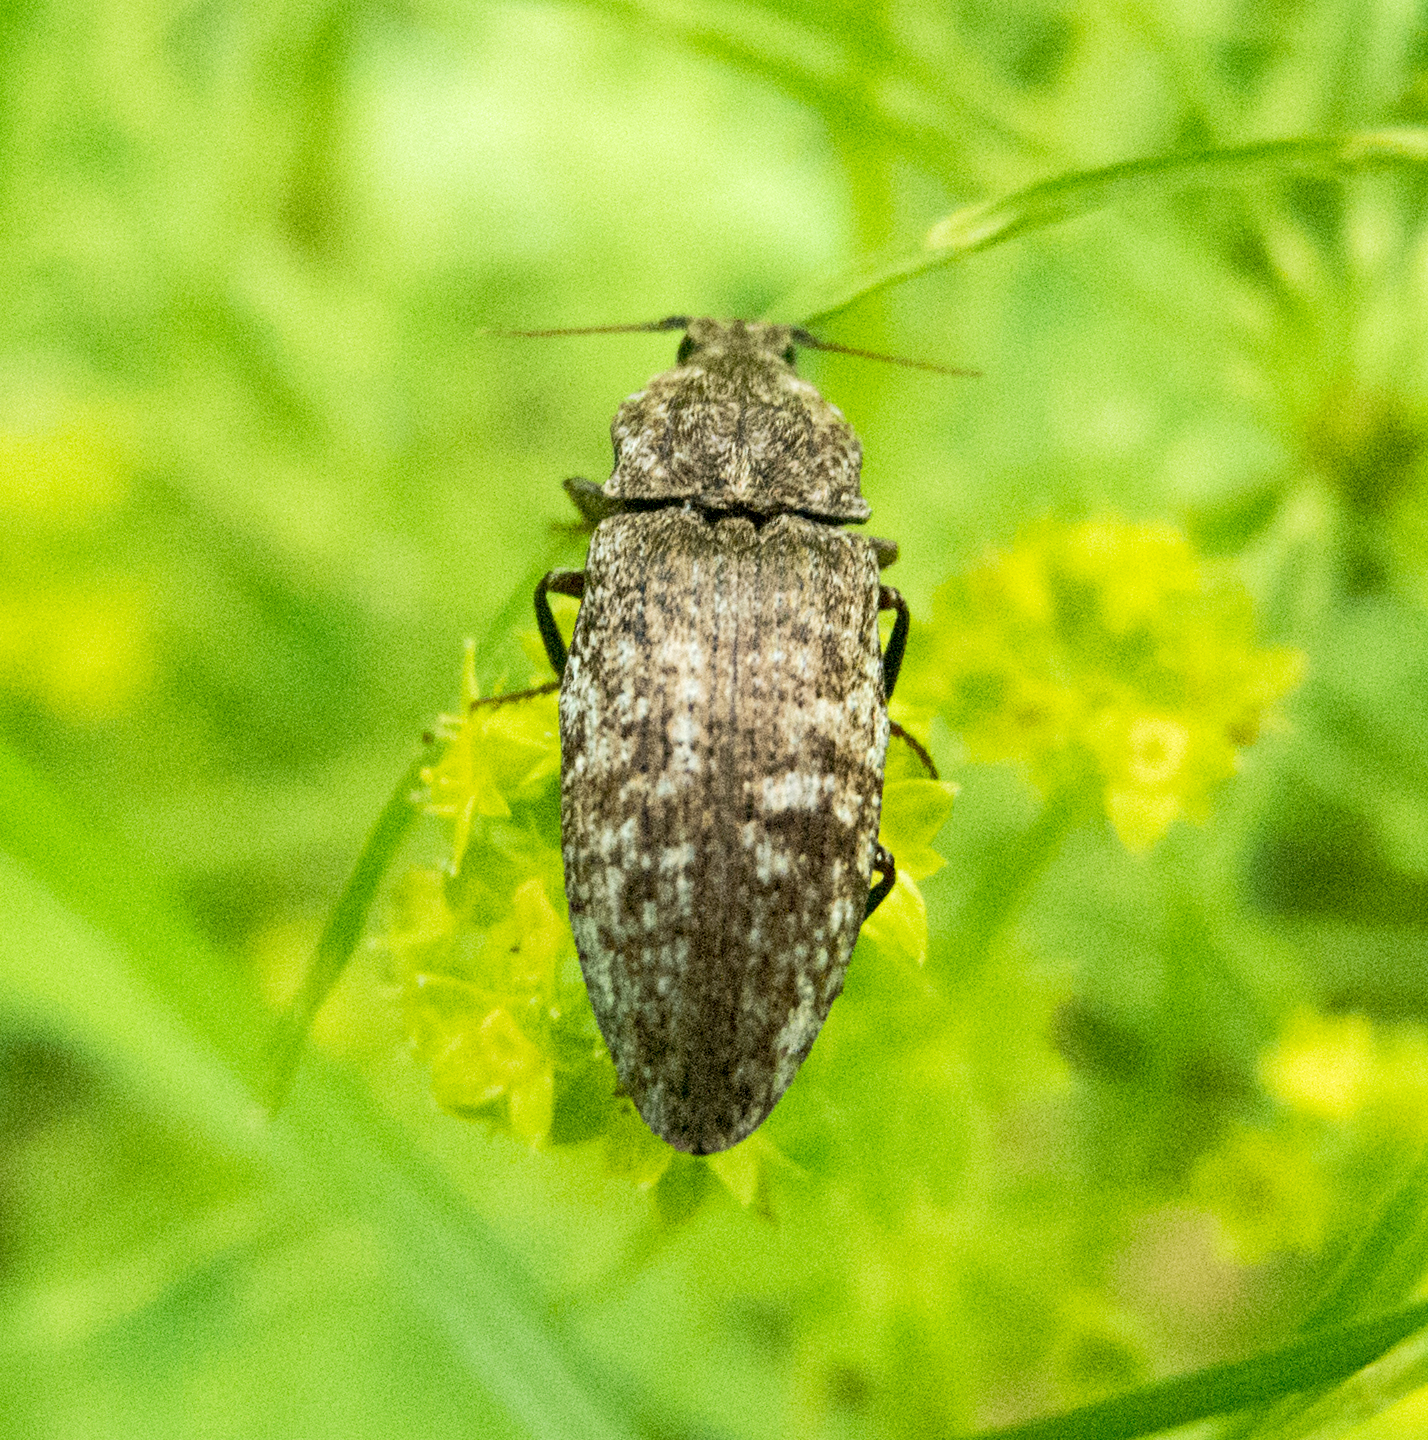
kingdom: Animalia
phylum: Arthropoda
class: Insecta
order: Coleoptera
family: Elateridae
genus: Agrypnus
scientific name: Agrypnus murinus
